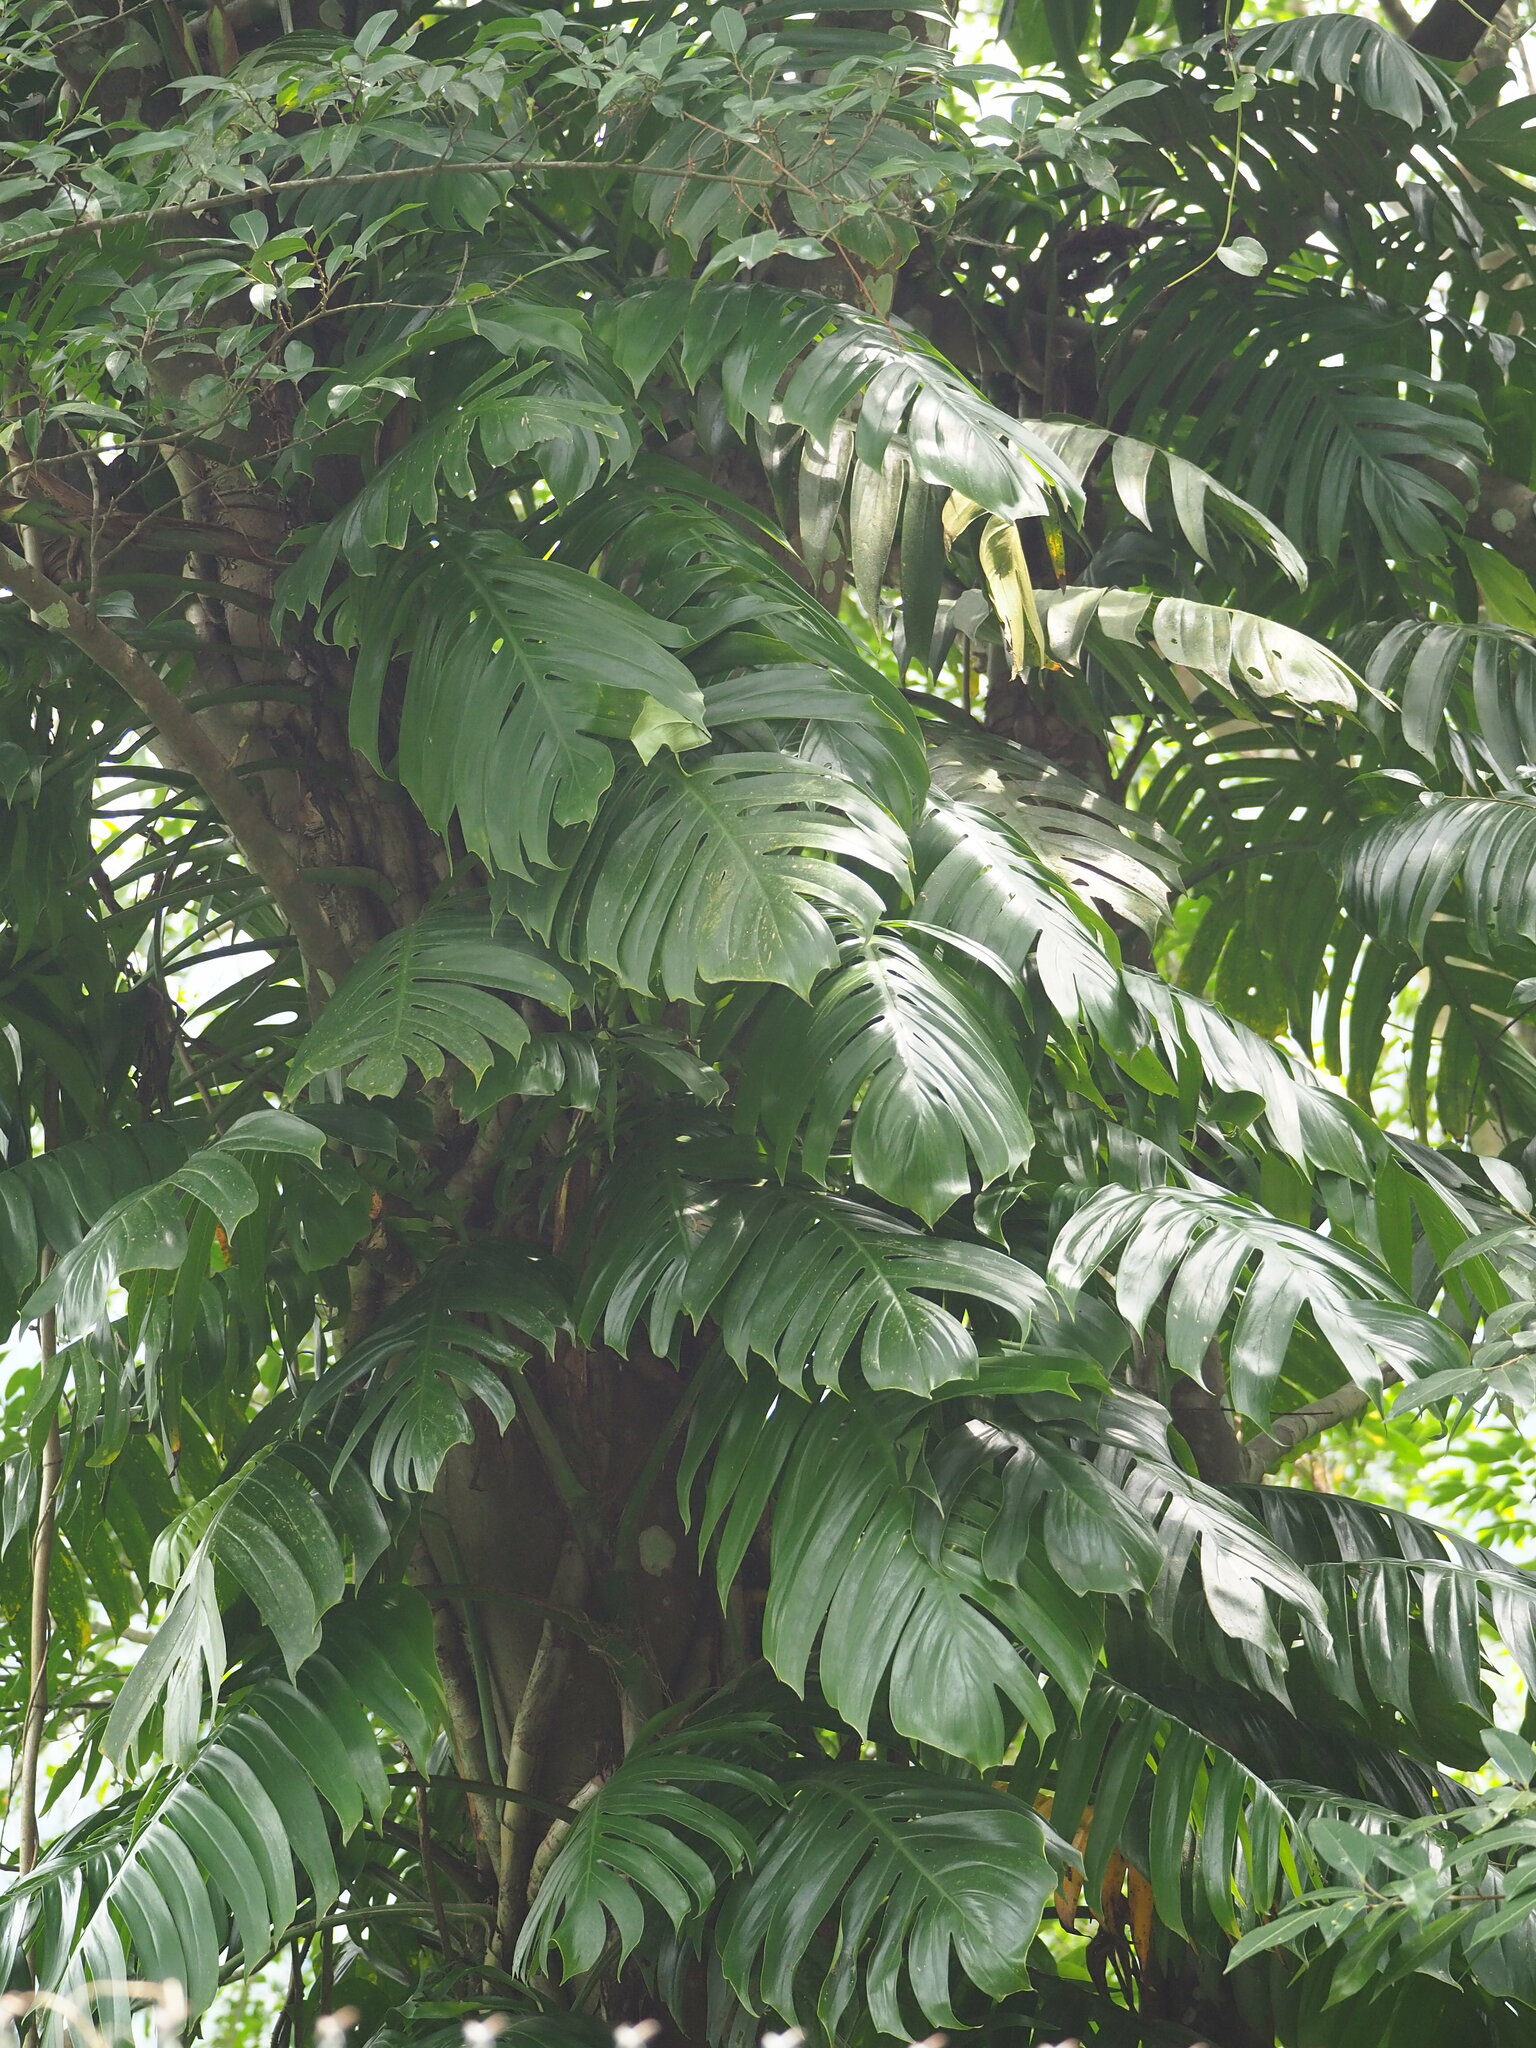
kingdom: Plantae
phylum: Tracheophyta
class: Liliopsida
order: Alismatales
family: Araceae
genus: Epipremnum
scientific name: Epipremnum pinnatum
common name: Centipede tongavine
